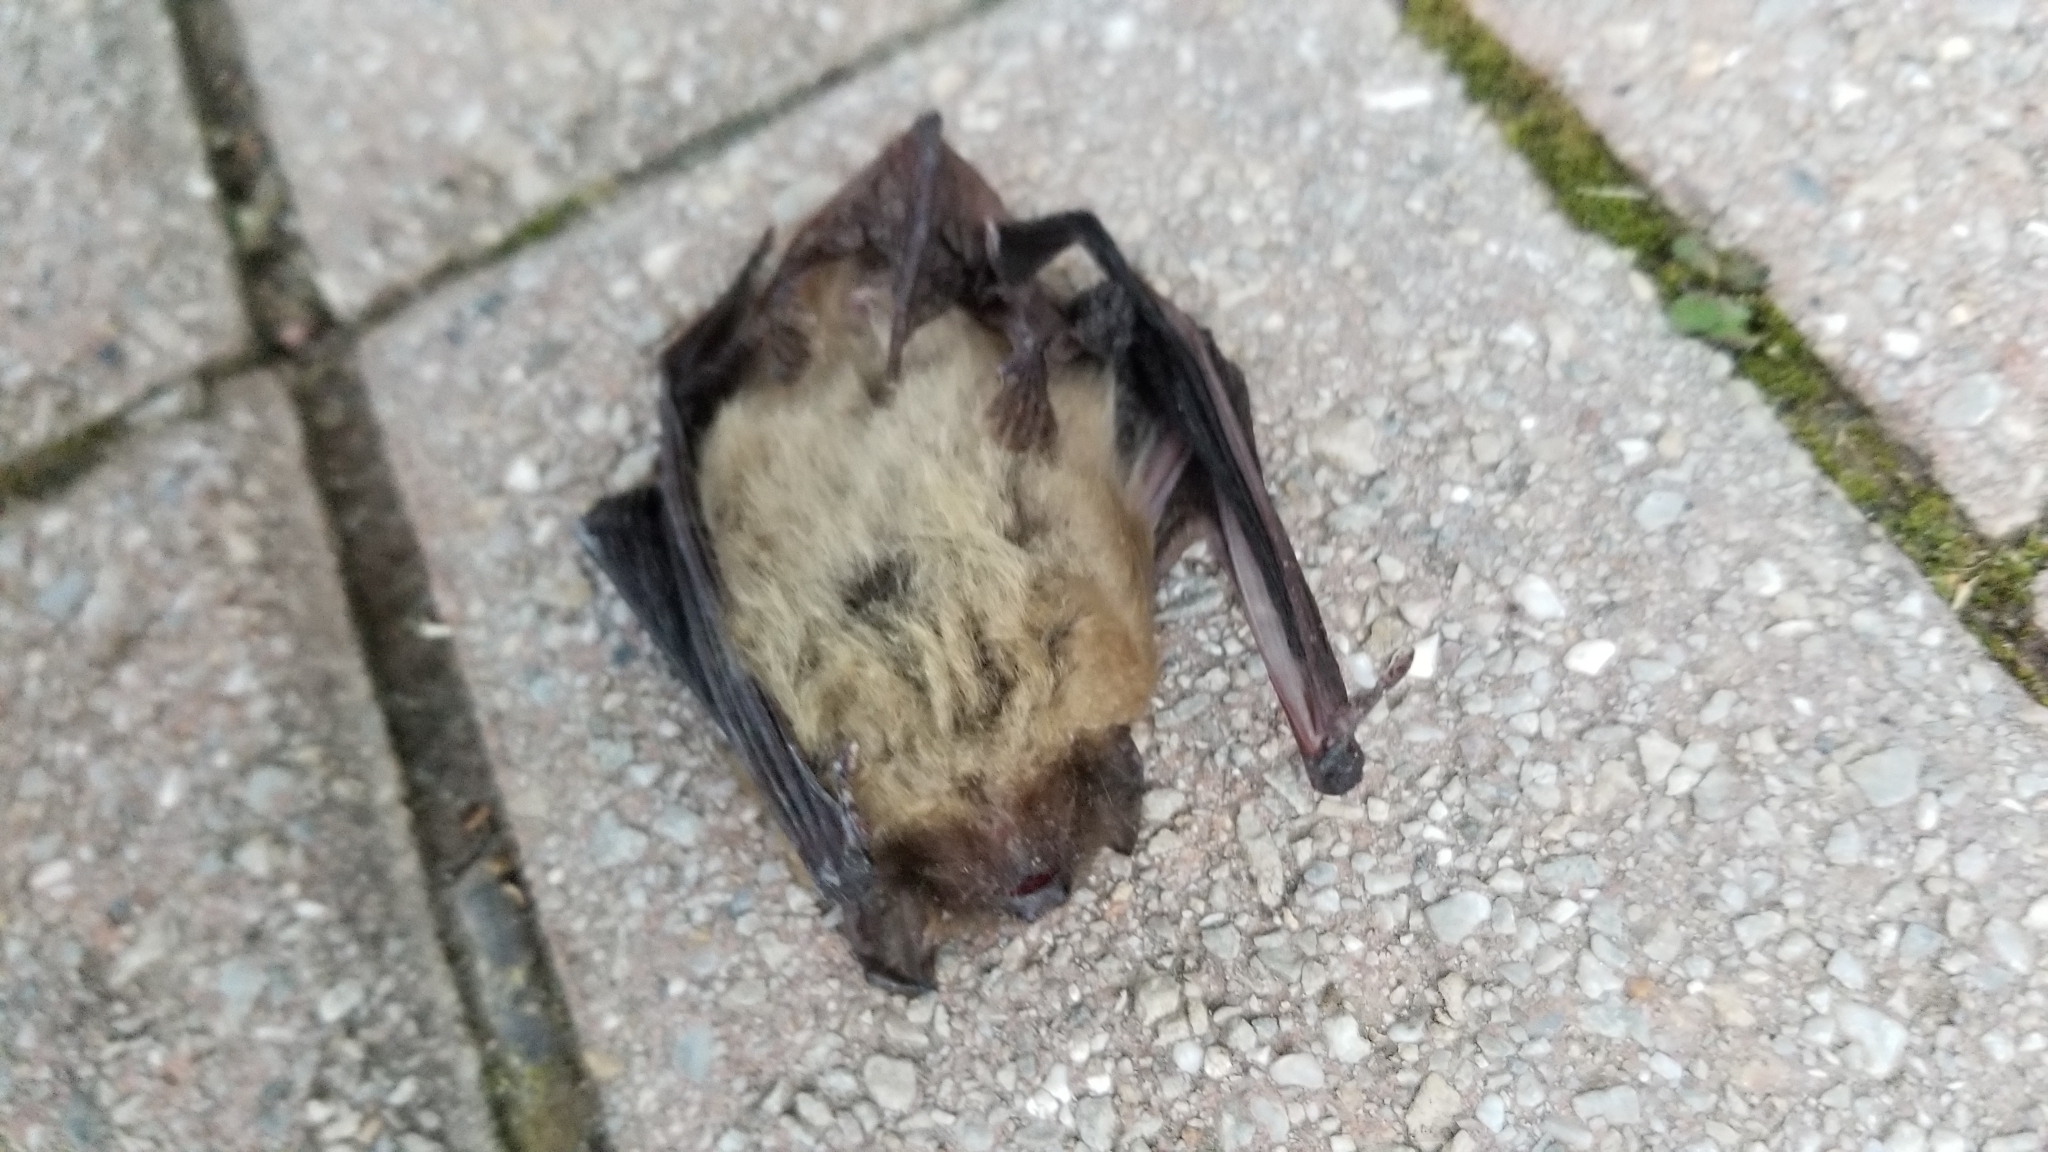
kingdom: Animalia
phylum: Chordata
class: Mammalia
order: Chiroptera
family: Vespertilionidae
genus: Eptesicus
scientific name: Eptesicus fuscus
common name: Big brown bat
